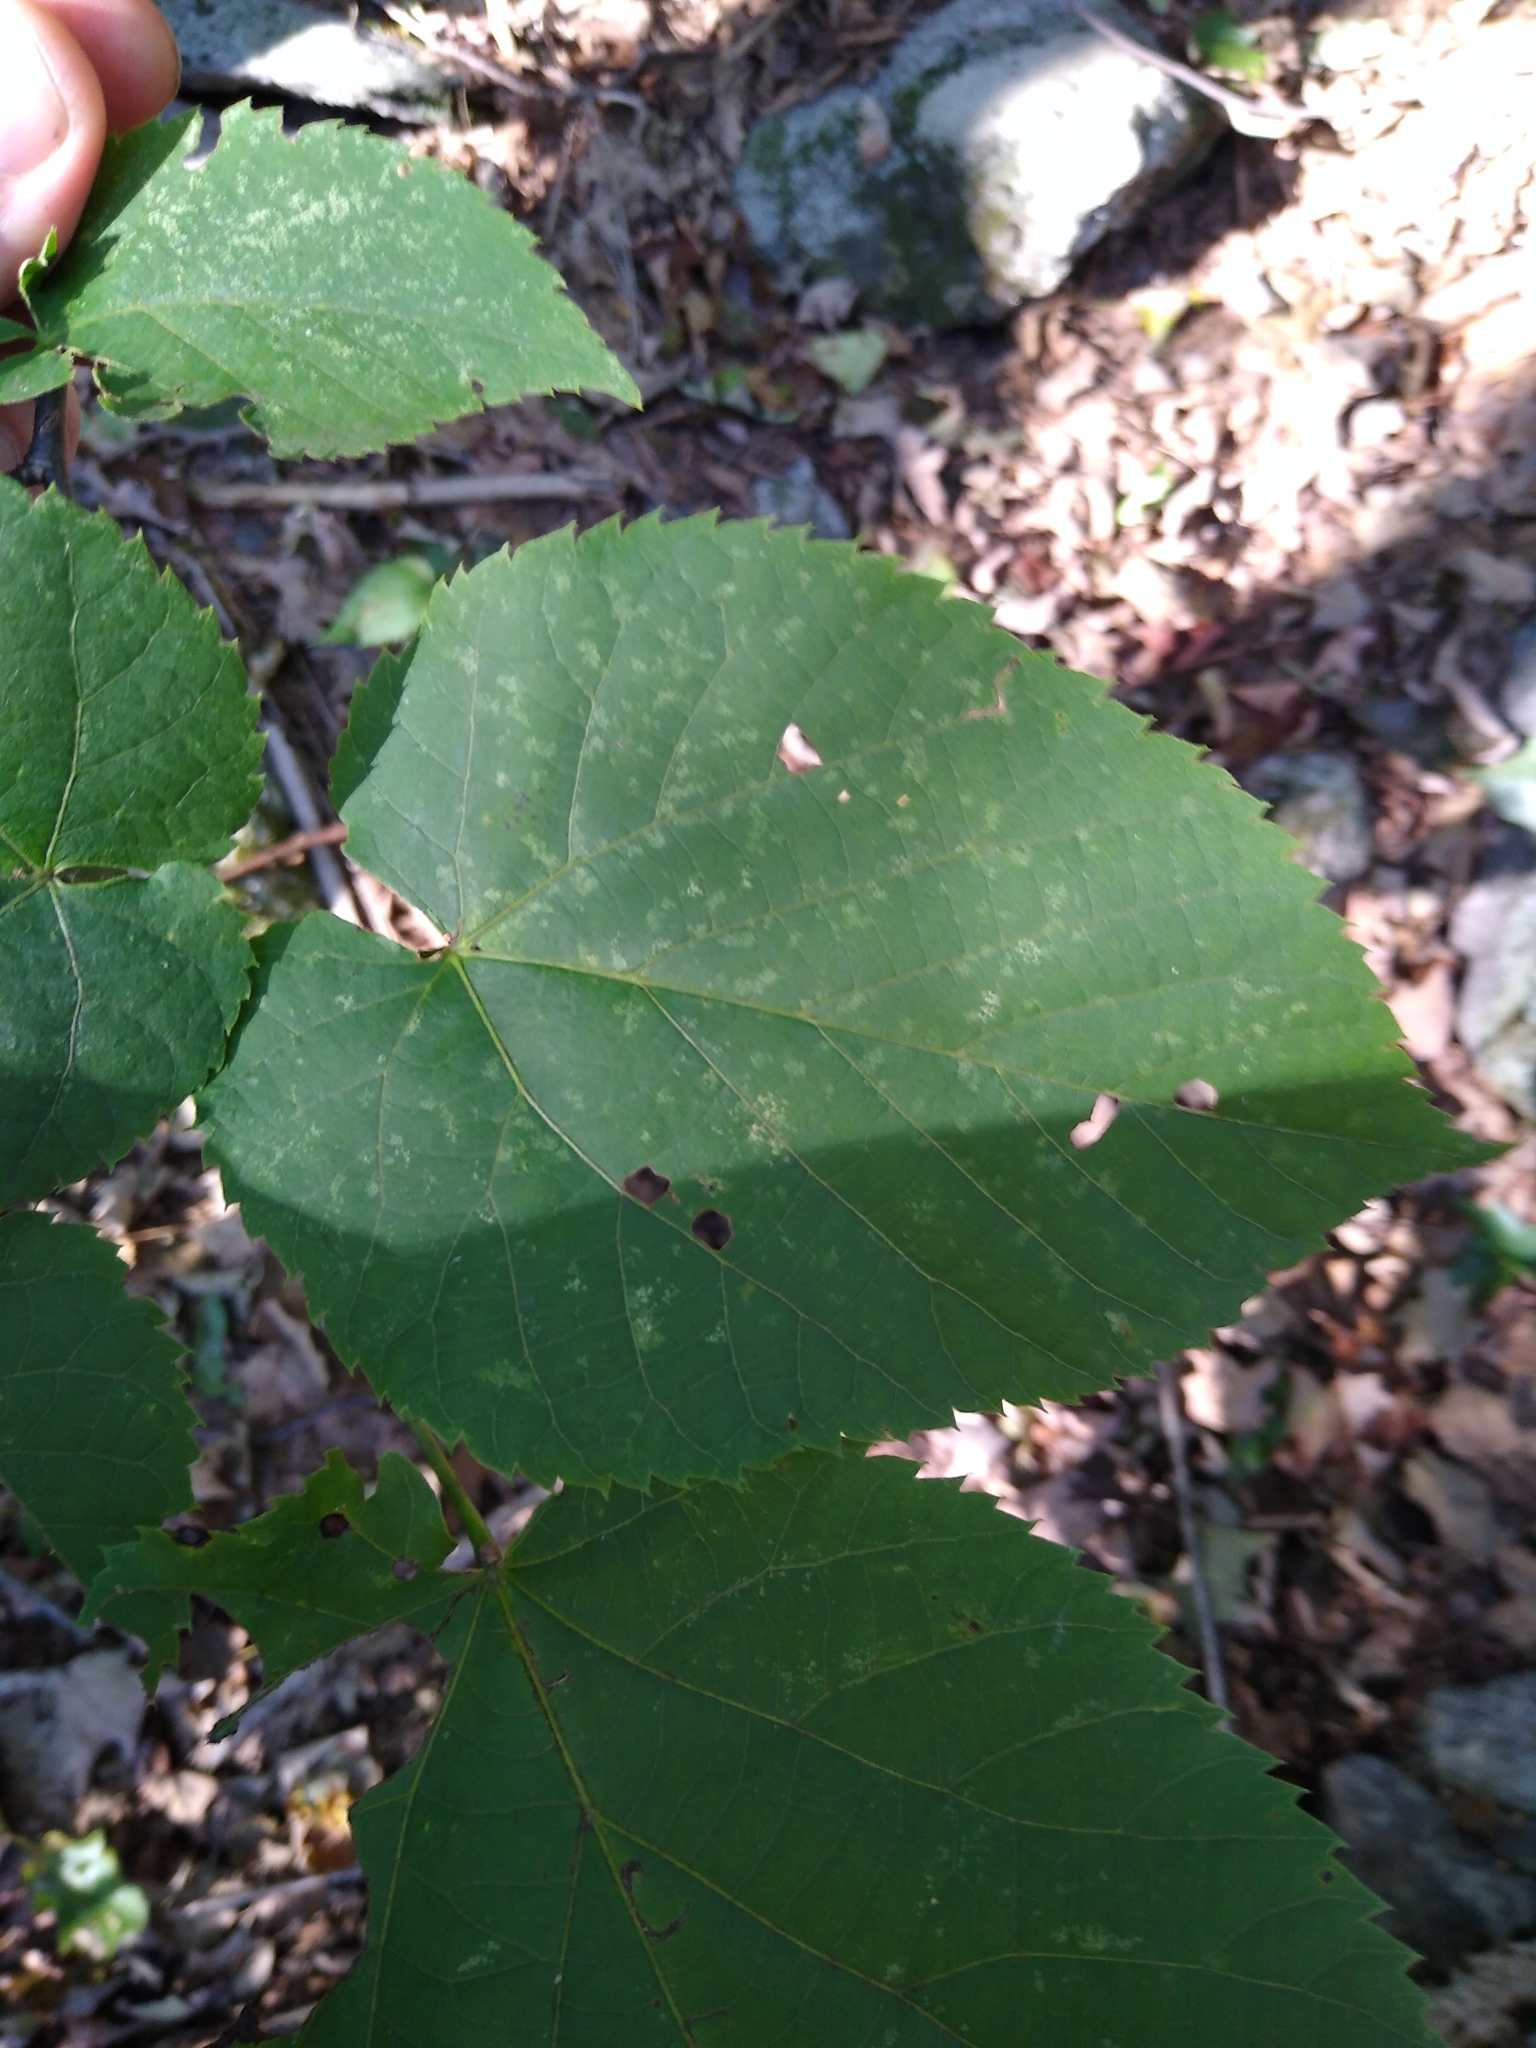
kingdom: Plantae
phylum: Tracheophyta
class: Magnoliopsida
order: Malvales
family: Malvaceae
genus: Tilia
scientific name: Tilia americana
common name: Basswood
